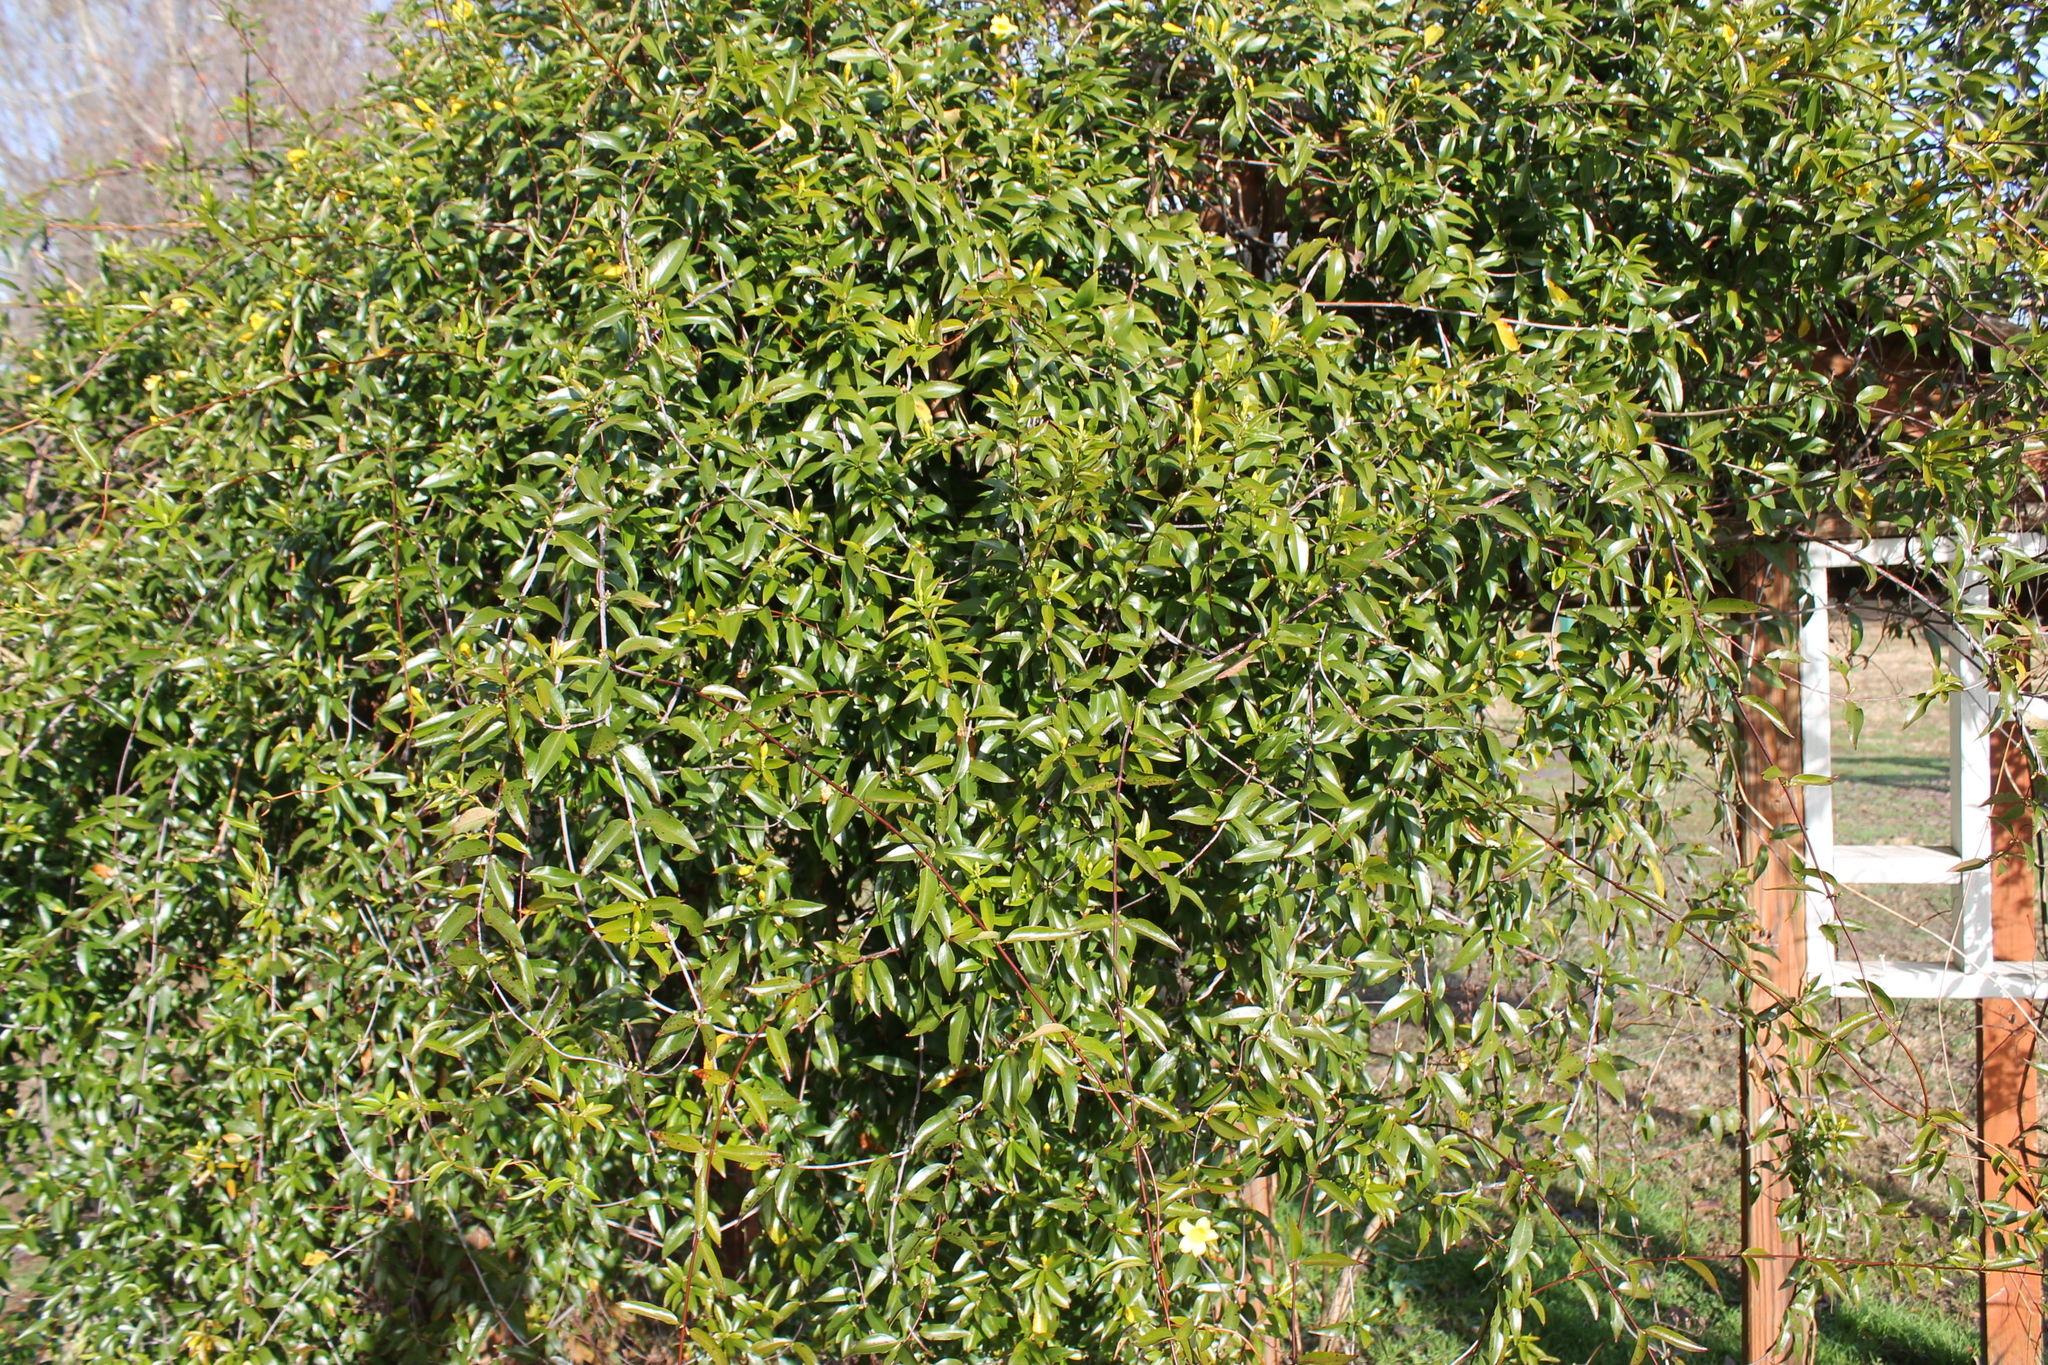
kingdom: Plantae
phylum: Tracheophyta
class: Magnoliopsida
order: Gentianales
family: Gelsemiaceae
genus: Gelsemium
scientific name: Gelsemium sempervirens
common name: Carolina-jasmine
